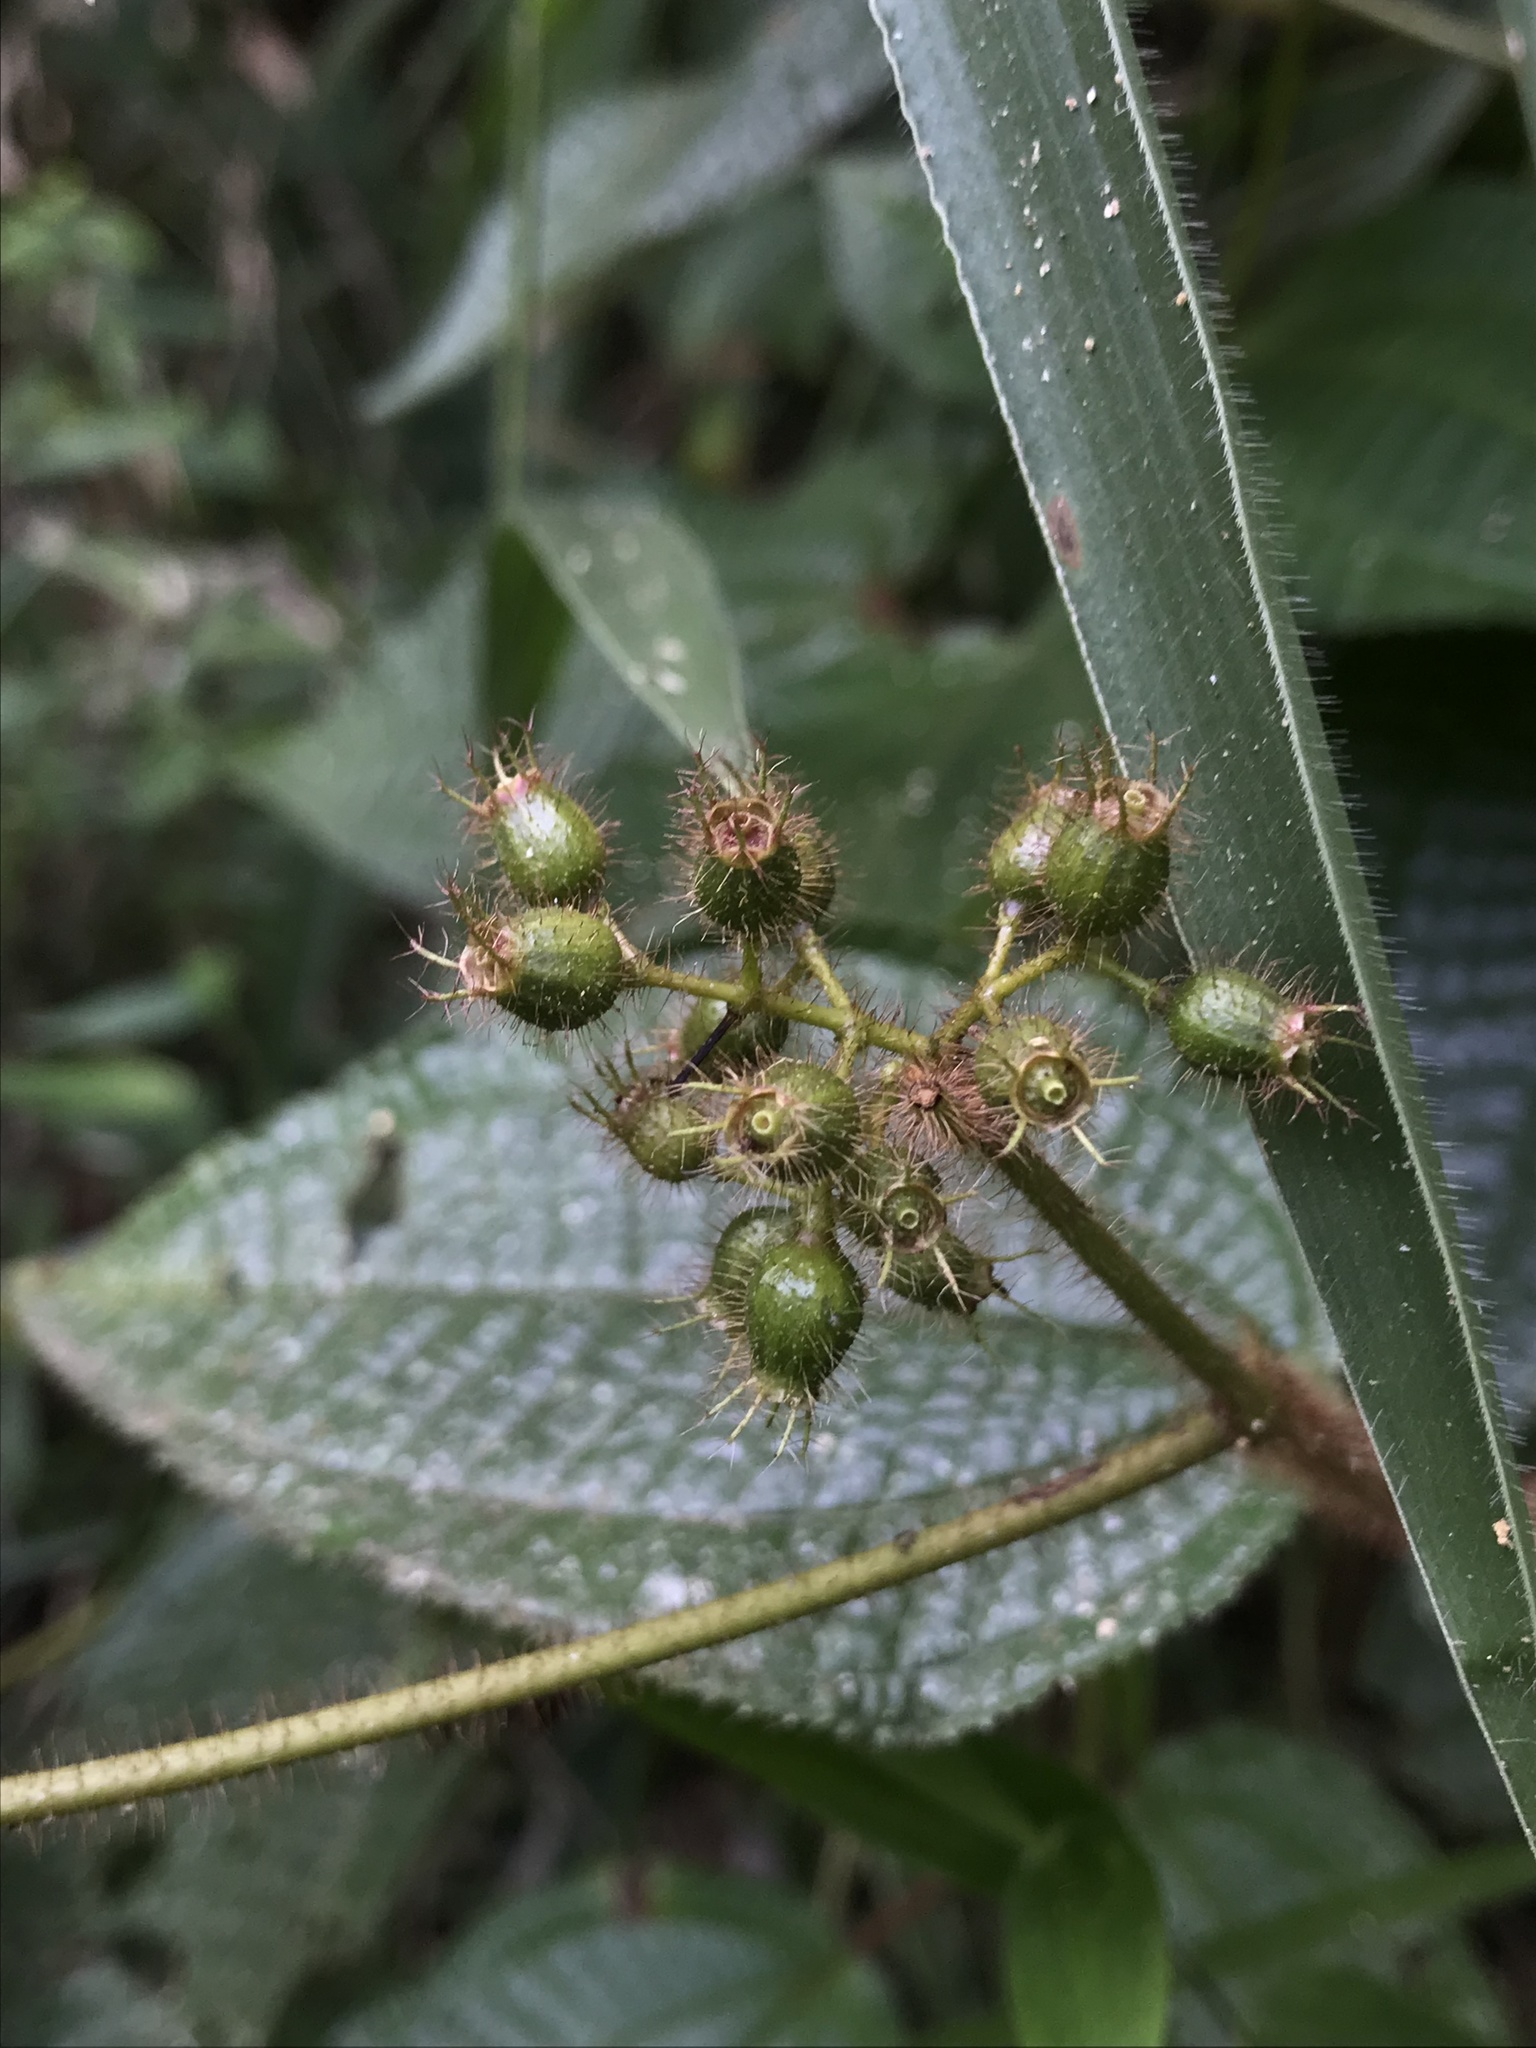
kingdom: Plantae
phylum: Tracheophyta
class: Magnoliopsida
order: Myrtales
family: Melastomataceae
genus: Miconia
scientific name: Miconia crenata
